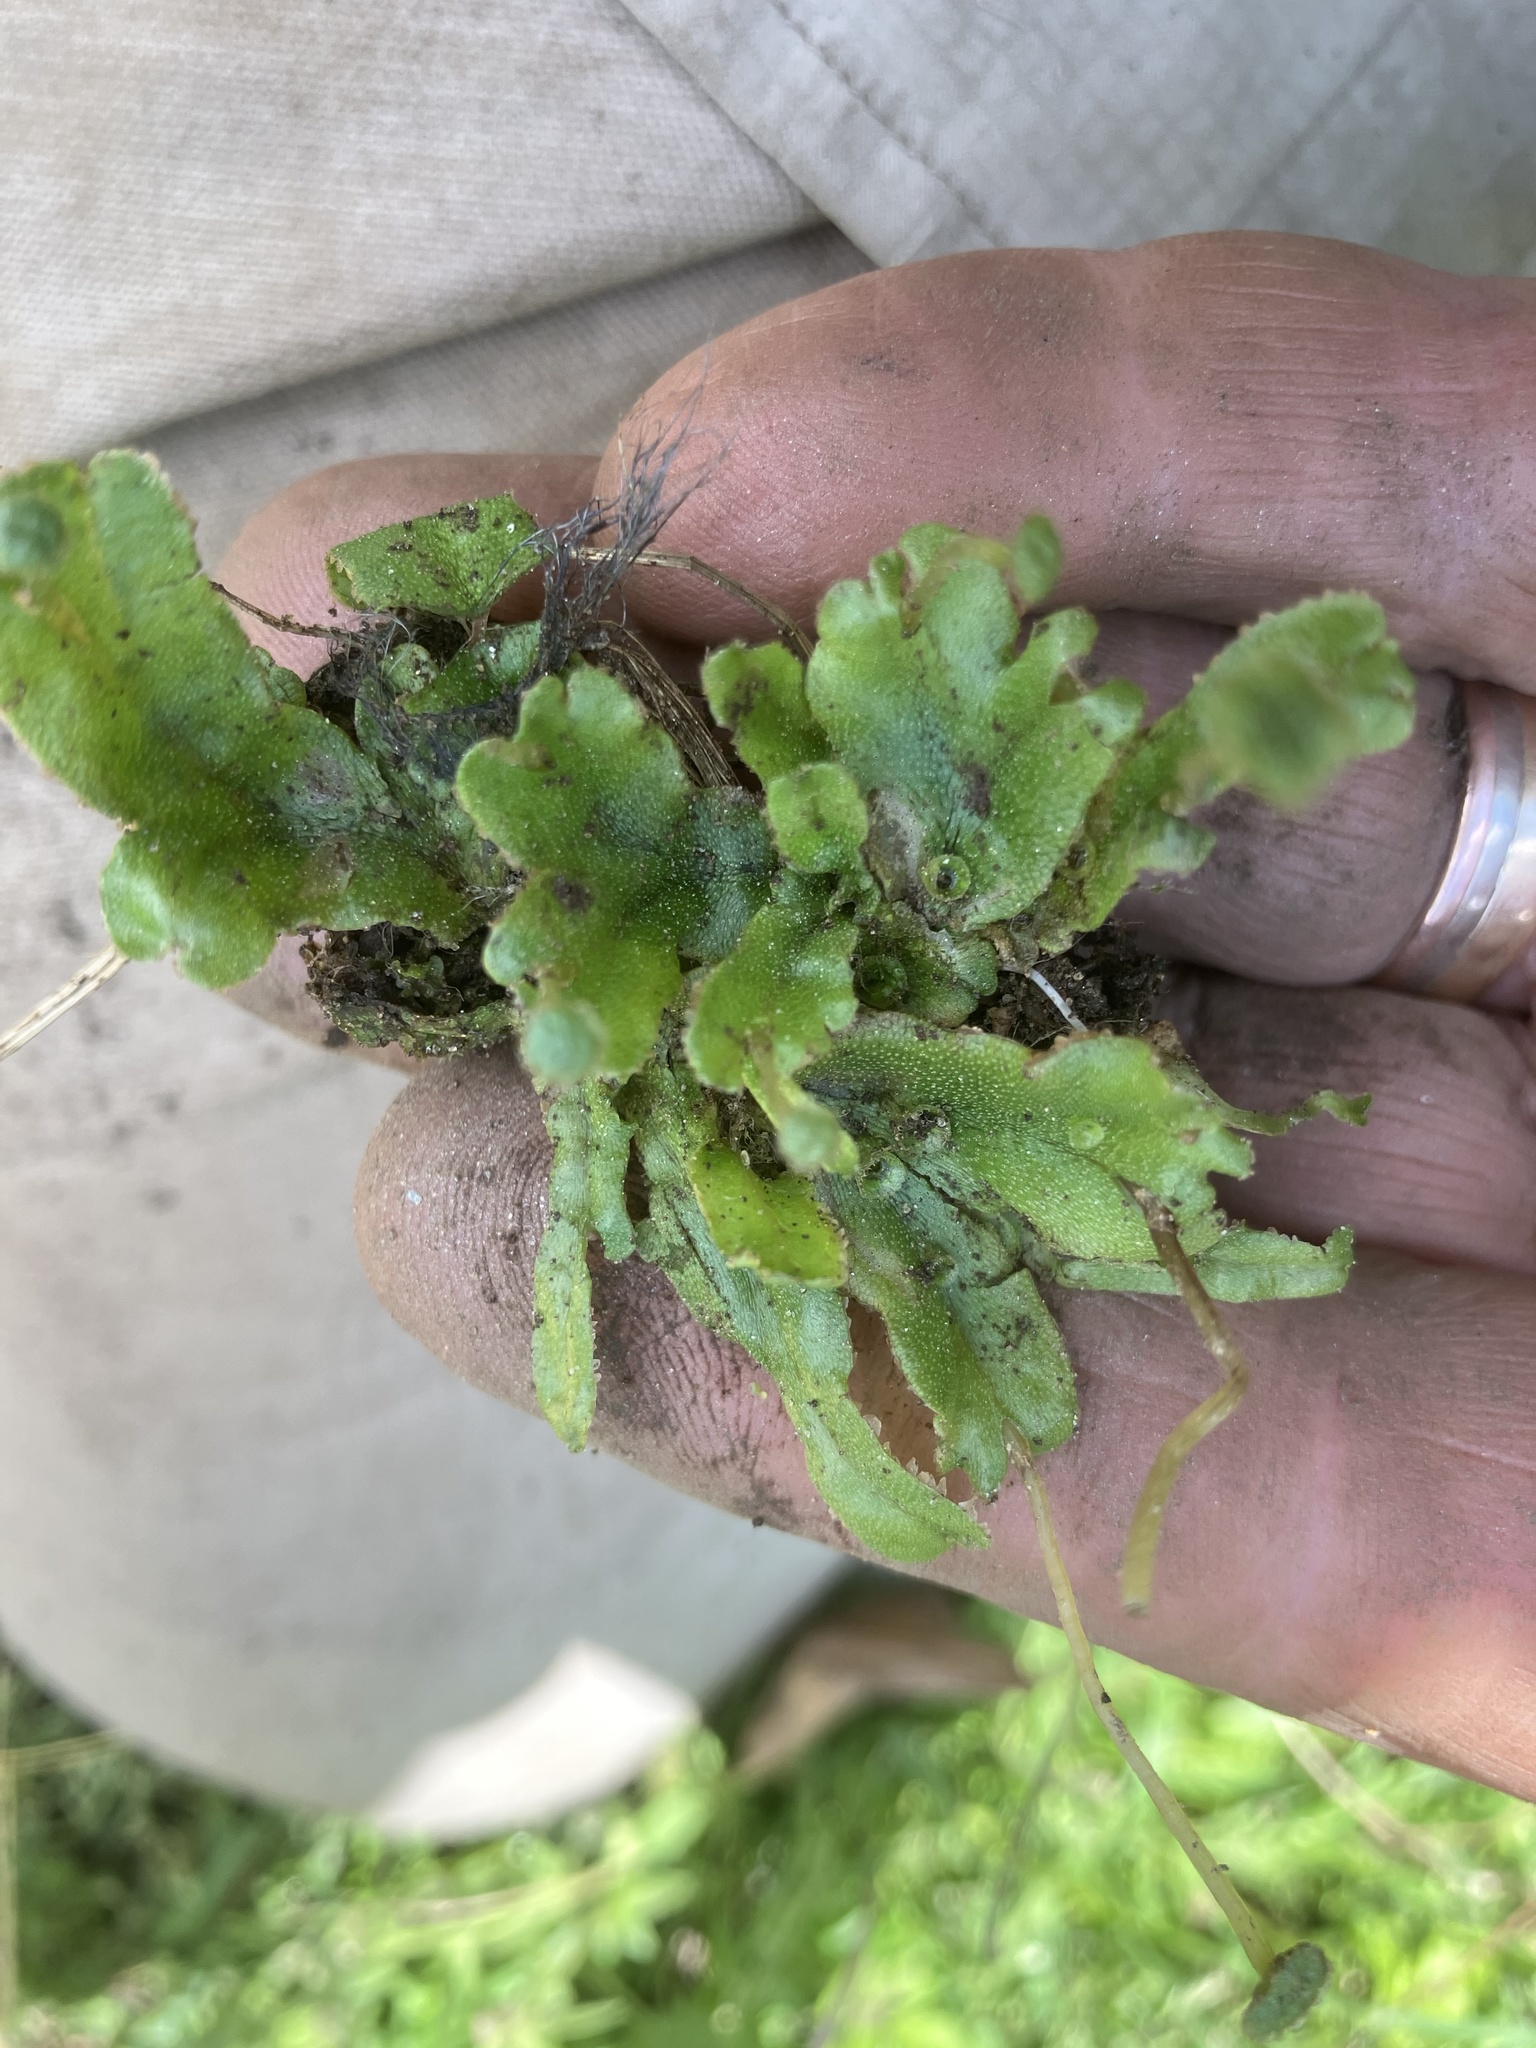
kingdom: Plantae
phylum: Marchantiophyta
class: Marchantiopsida
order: Marchantiales
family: Marchantiaceae
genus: Marchantia
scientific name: Marchantia polymorpha
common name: Common liverwort
